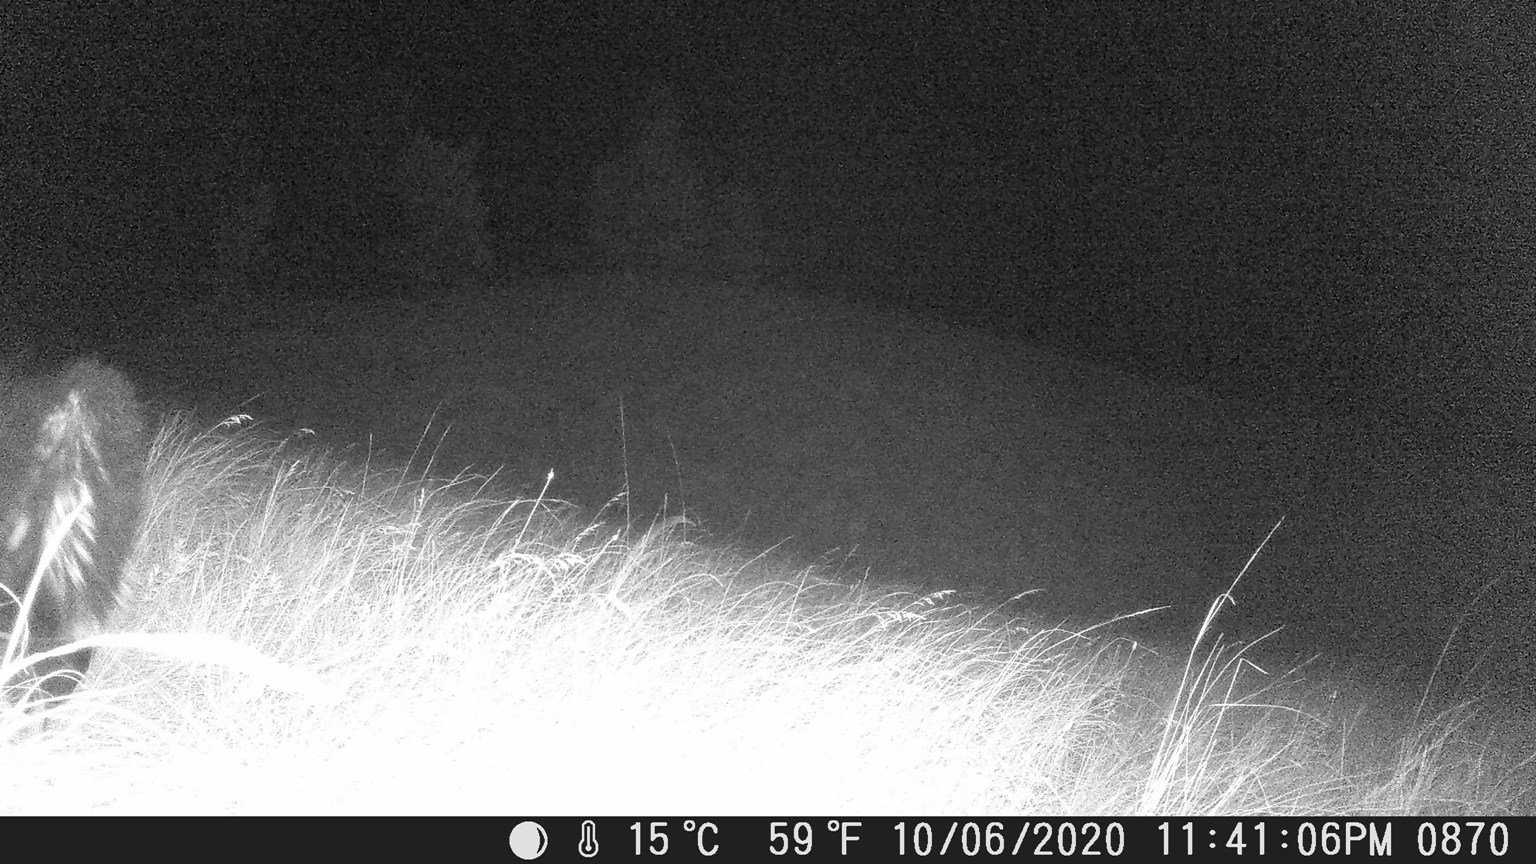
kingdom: Animalia
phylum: Chordata
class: Mammalia
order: Carnivora
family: Mephitidae
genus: Mephitis
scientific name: Mephitis mephitis
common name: Striped skunk
